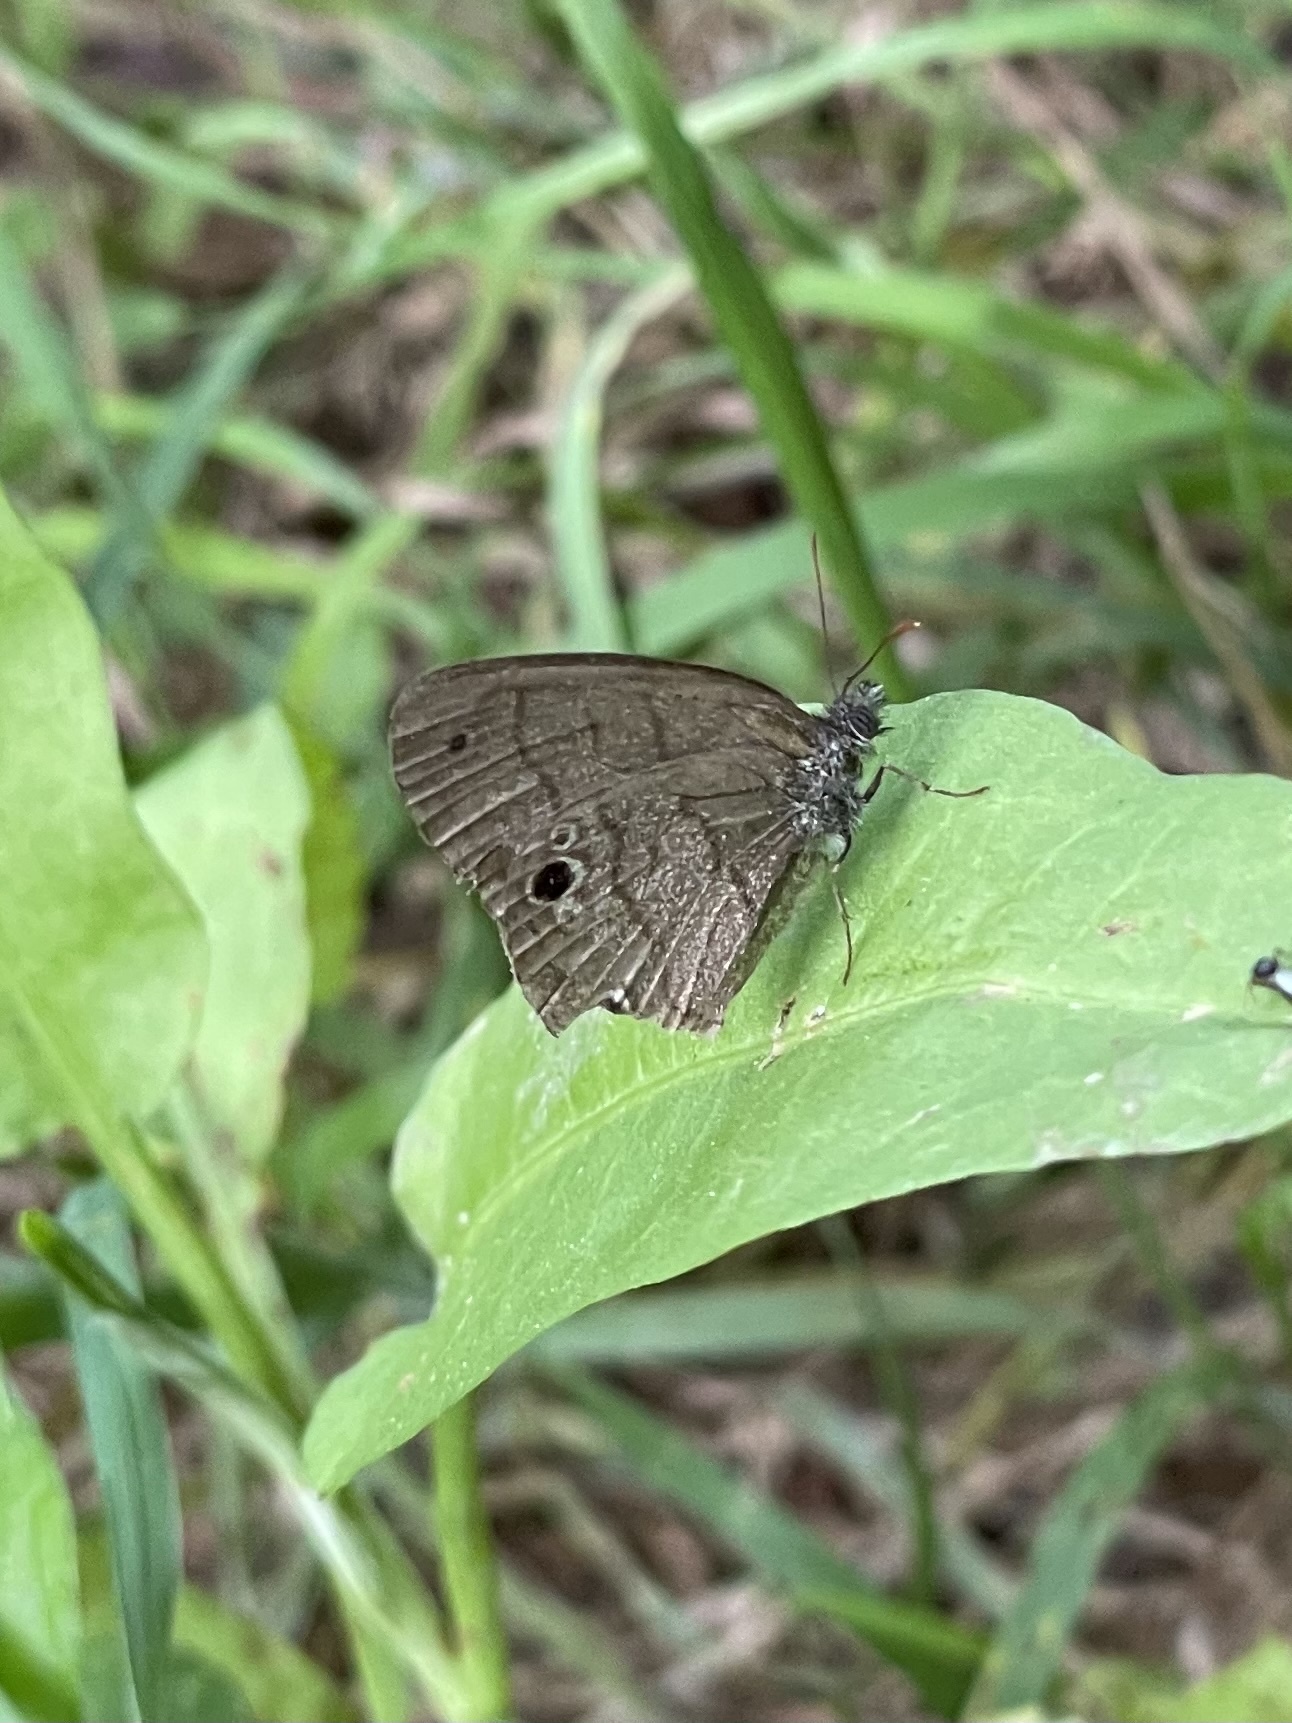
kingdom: Animalia
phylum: Arthropoda
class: Insecta
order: Lepidoptera
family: Nymphalidae
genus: Hermeuptychia
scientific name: Hermeuptychia hermes
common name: Hermes satyr
